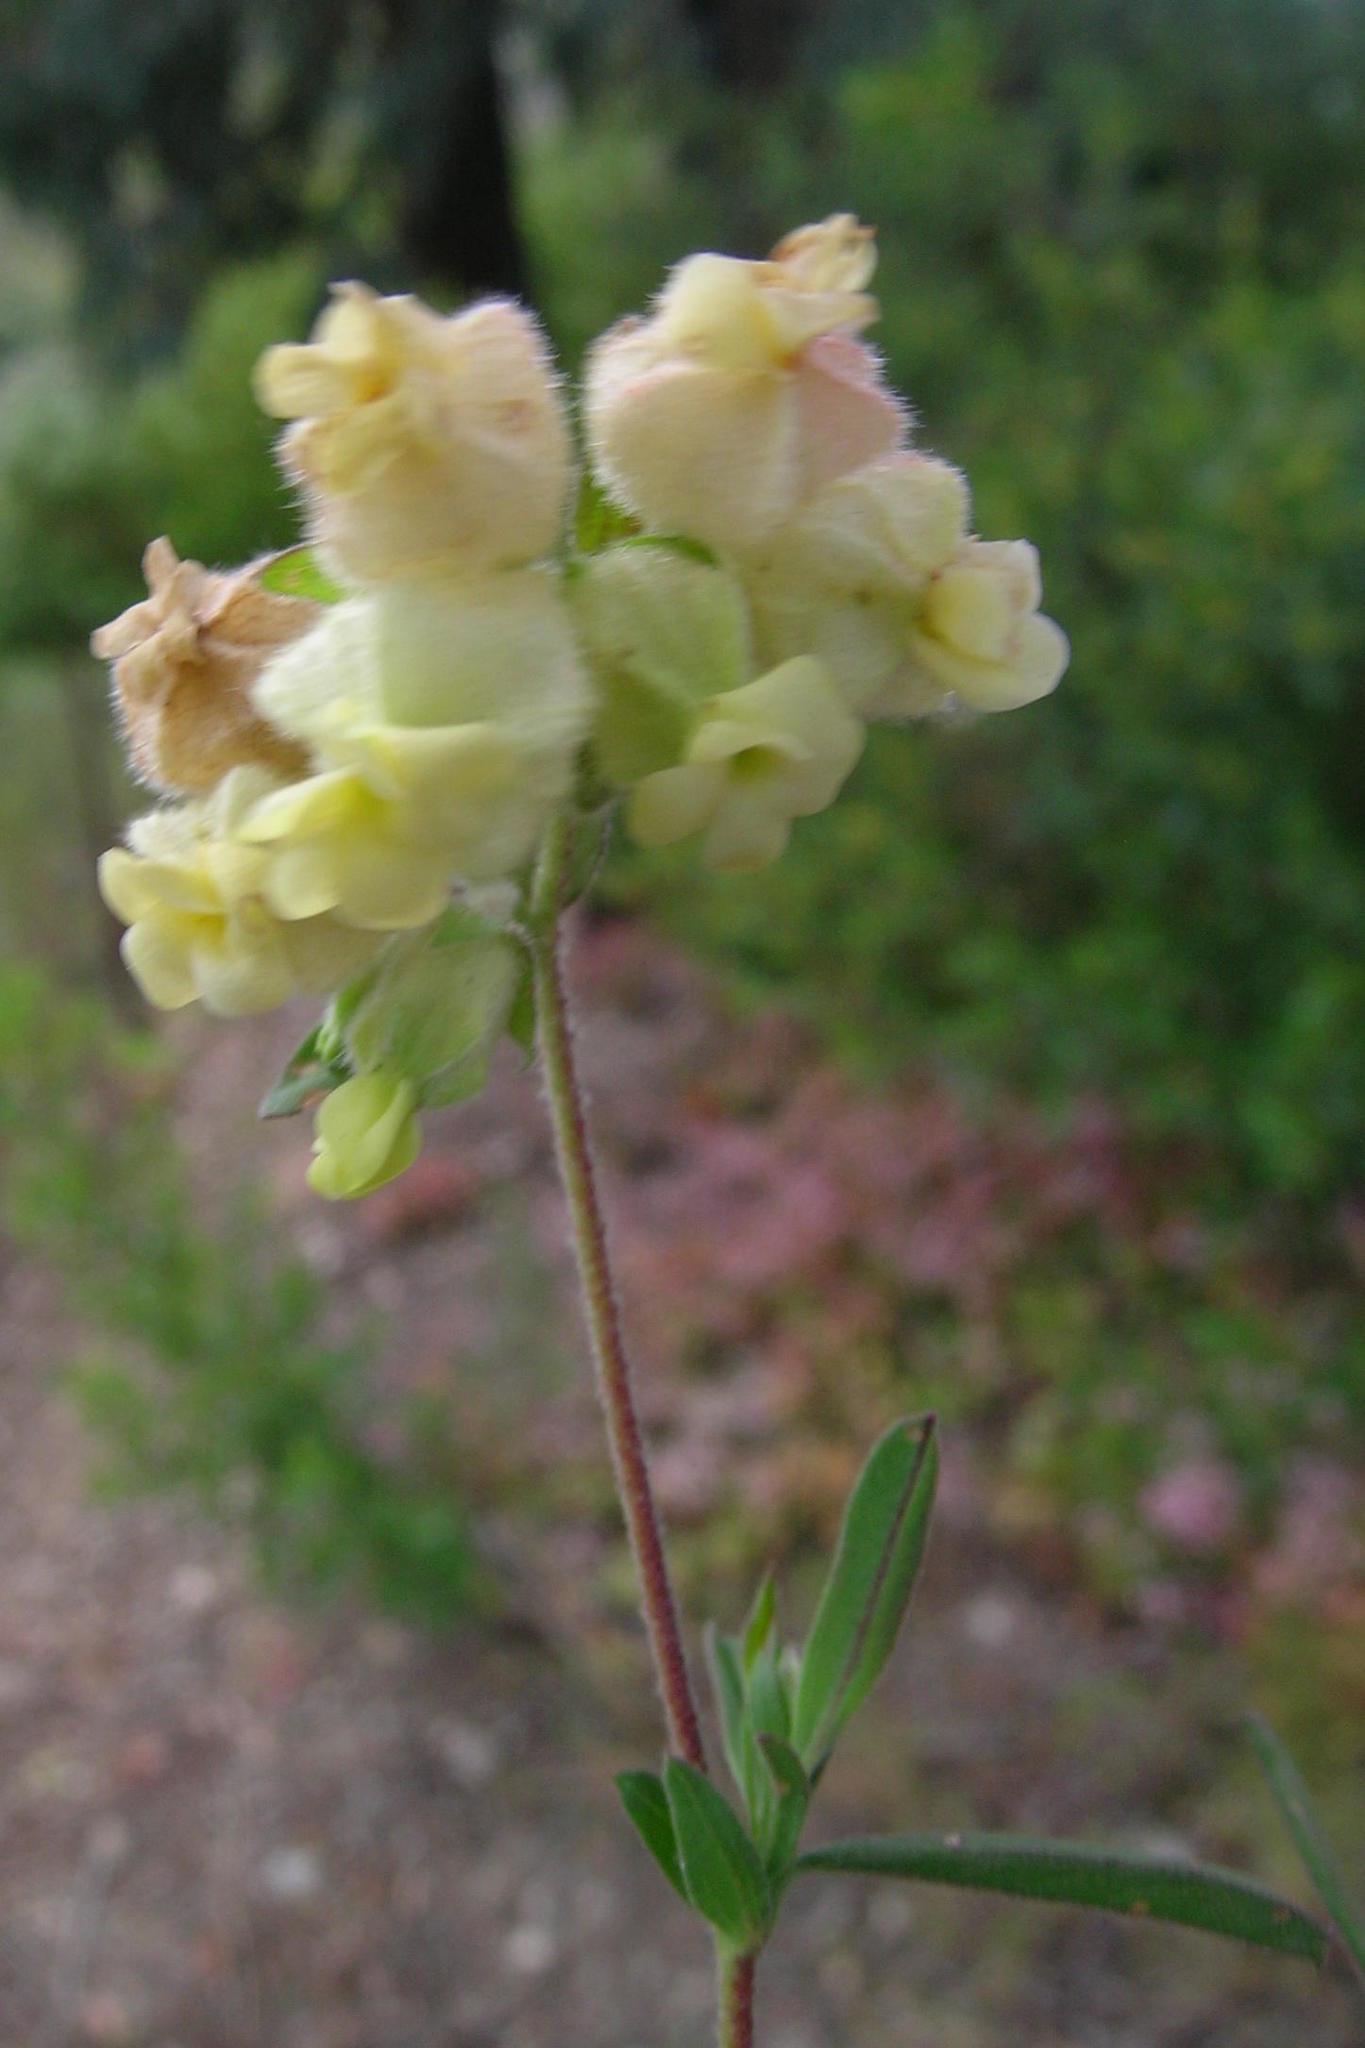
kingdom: Plantae
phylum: Tracheophyta
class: Magnoliopsida
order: Malvales
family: Malvaceae
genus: Hermannia
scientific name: Hermannia hyssopifolia
